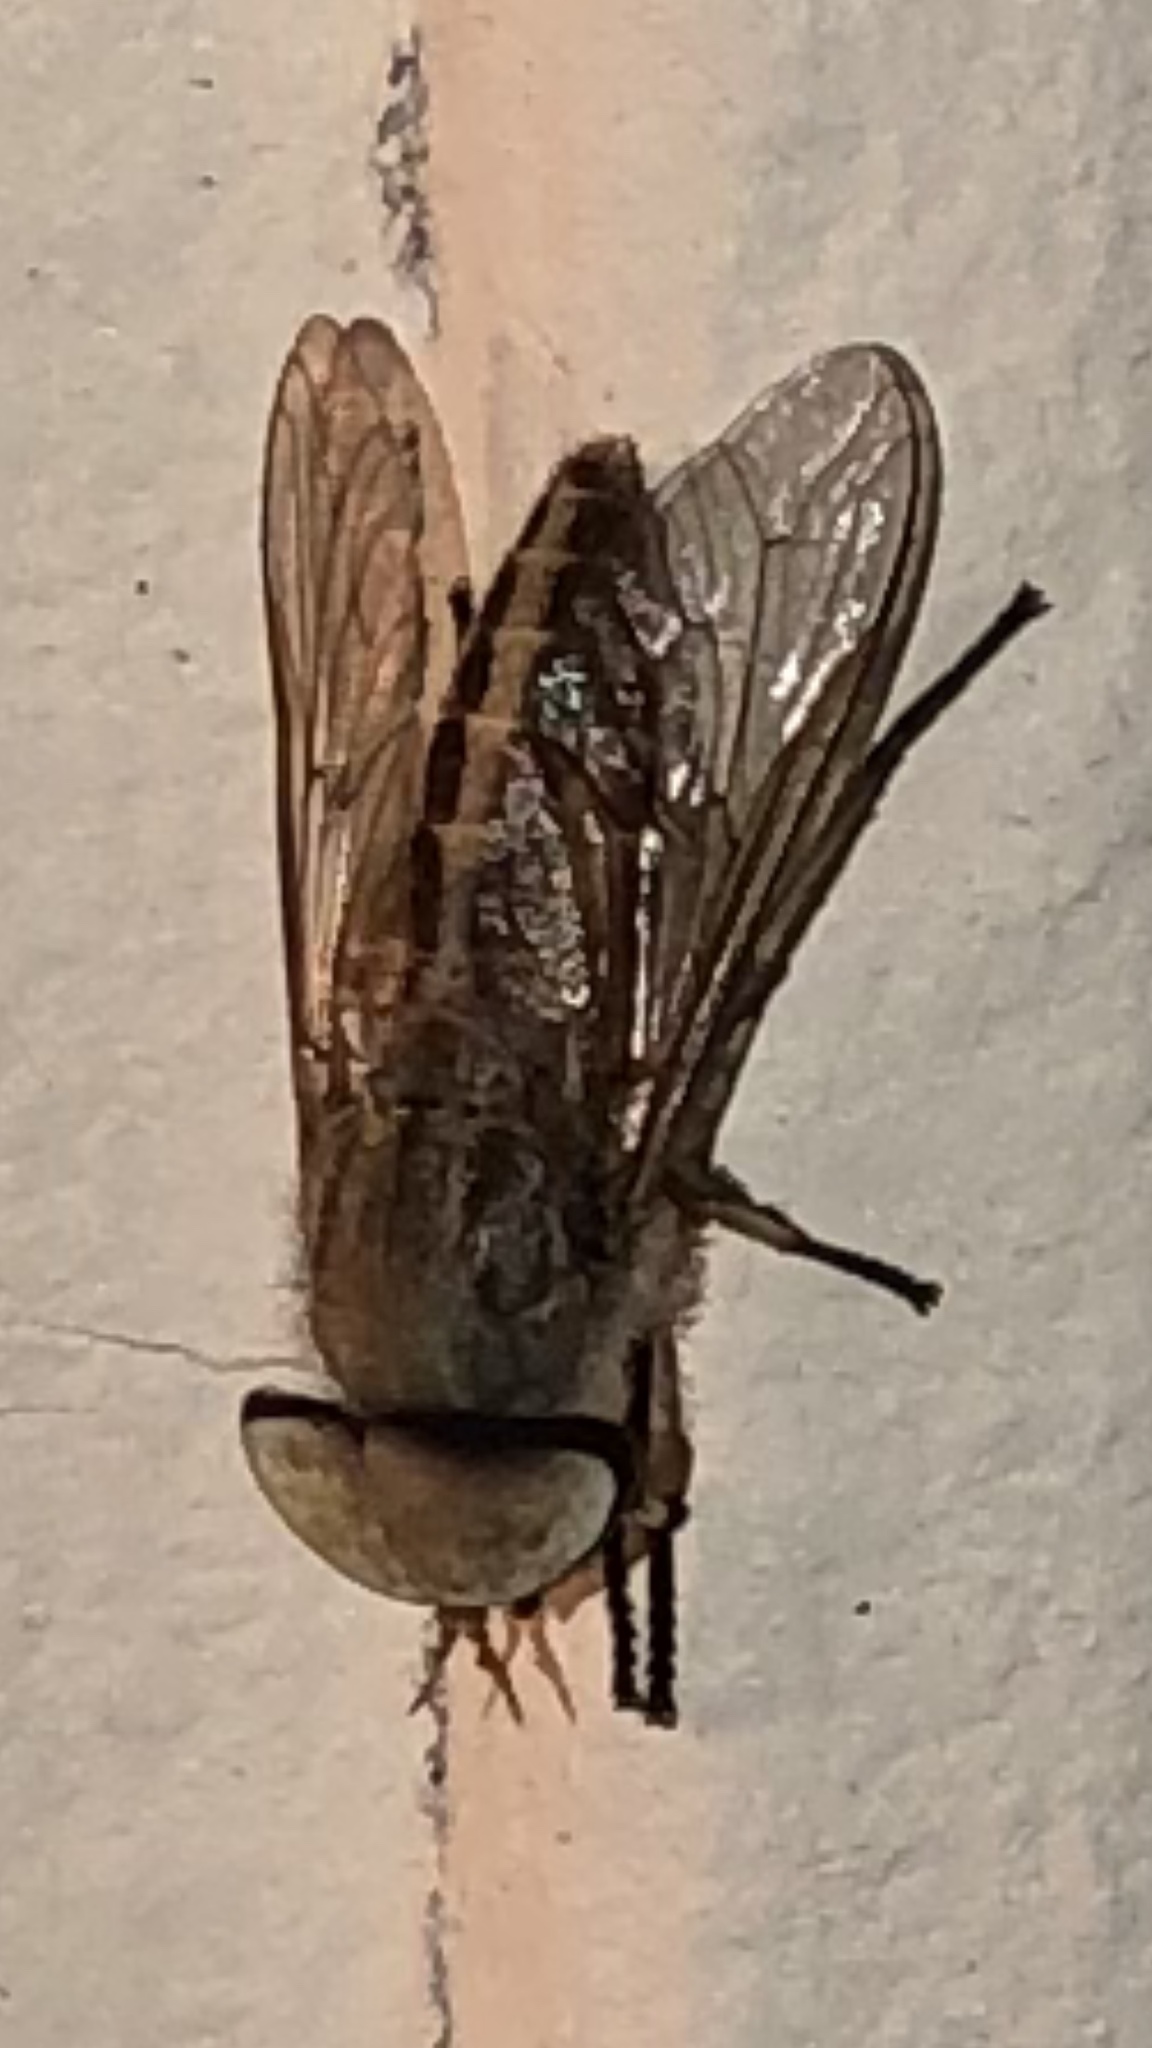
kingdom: Animalia
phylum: Arthropoda
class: Insecta
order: Diptera
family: Tabanidae
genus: Tabanus
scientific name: Tabanus lineola
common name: Striped horse fly
